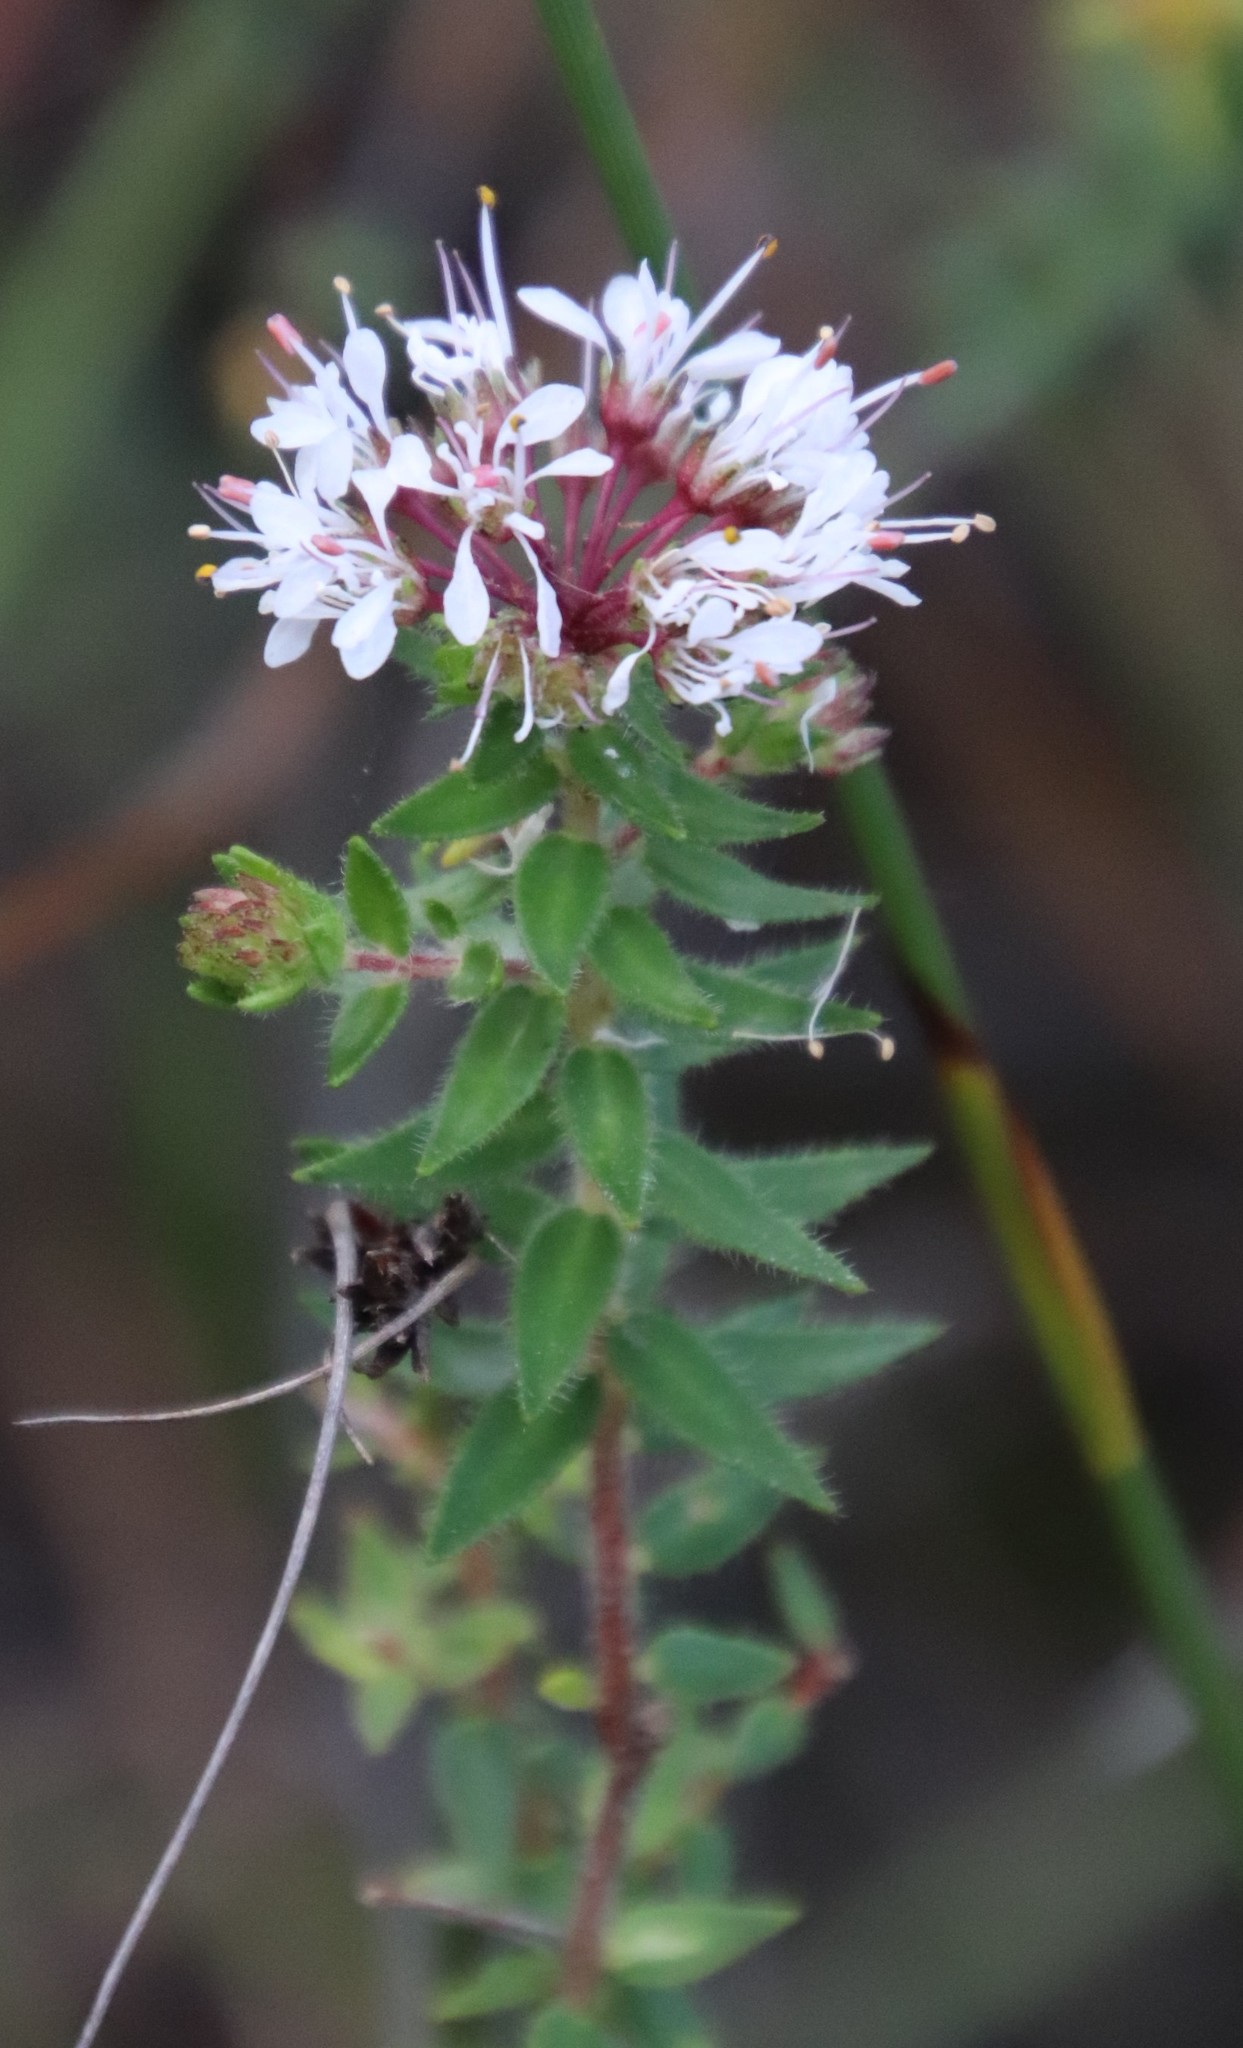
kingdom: Plantae
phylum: Tracheophyta
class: Magnoliopsida
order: Sapindales
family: Rutaceae
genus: Agathosma
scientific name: Agathosma serpyllacea
